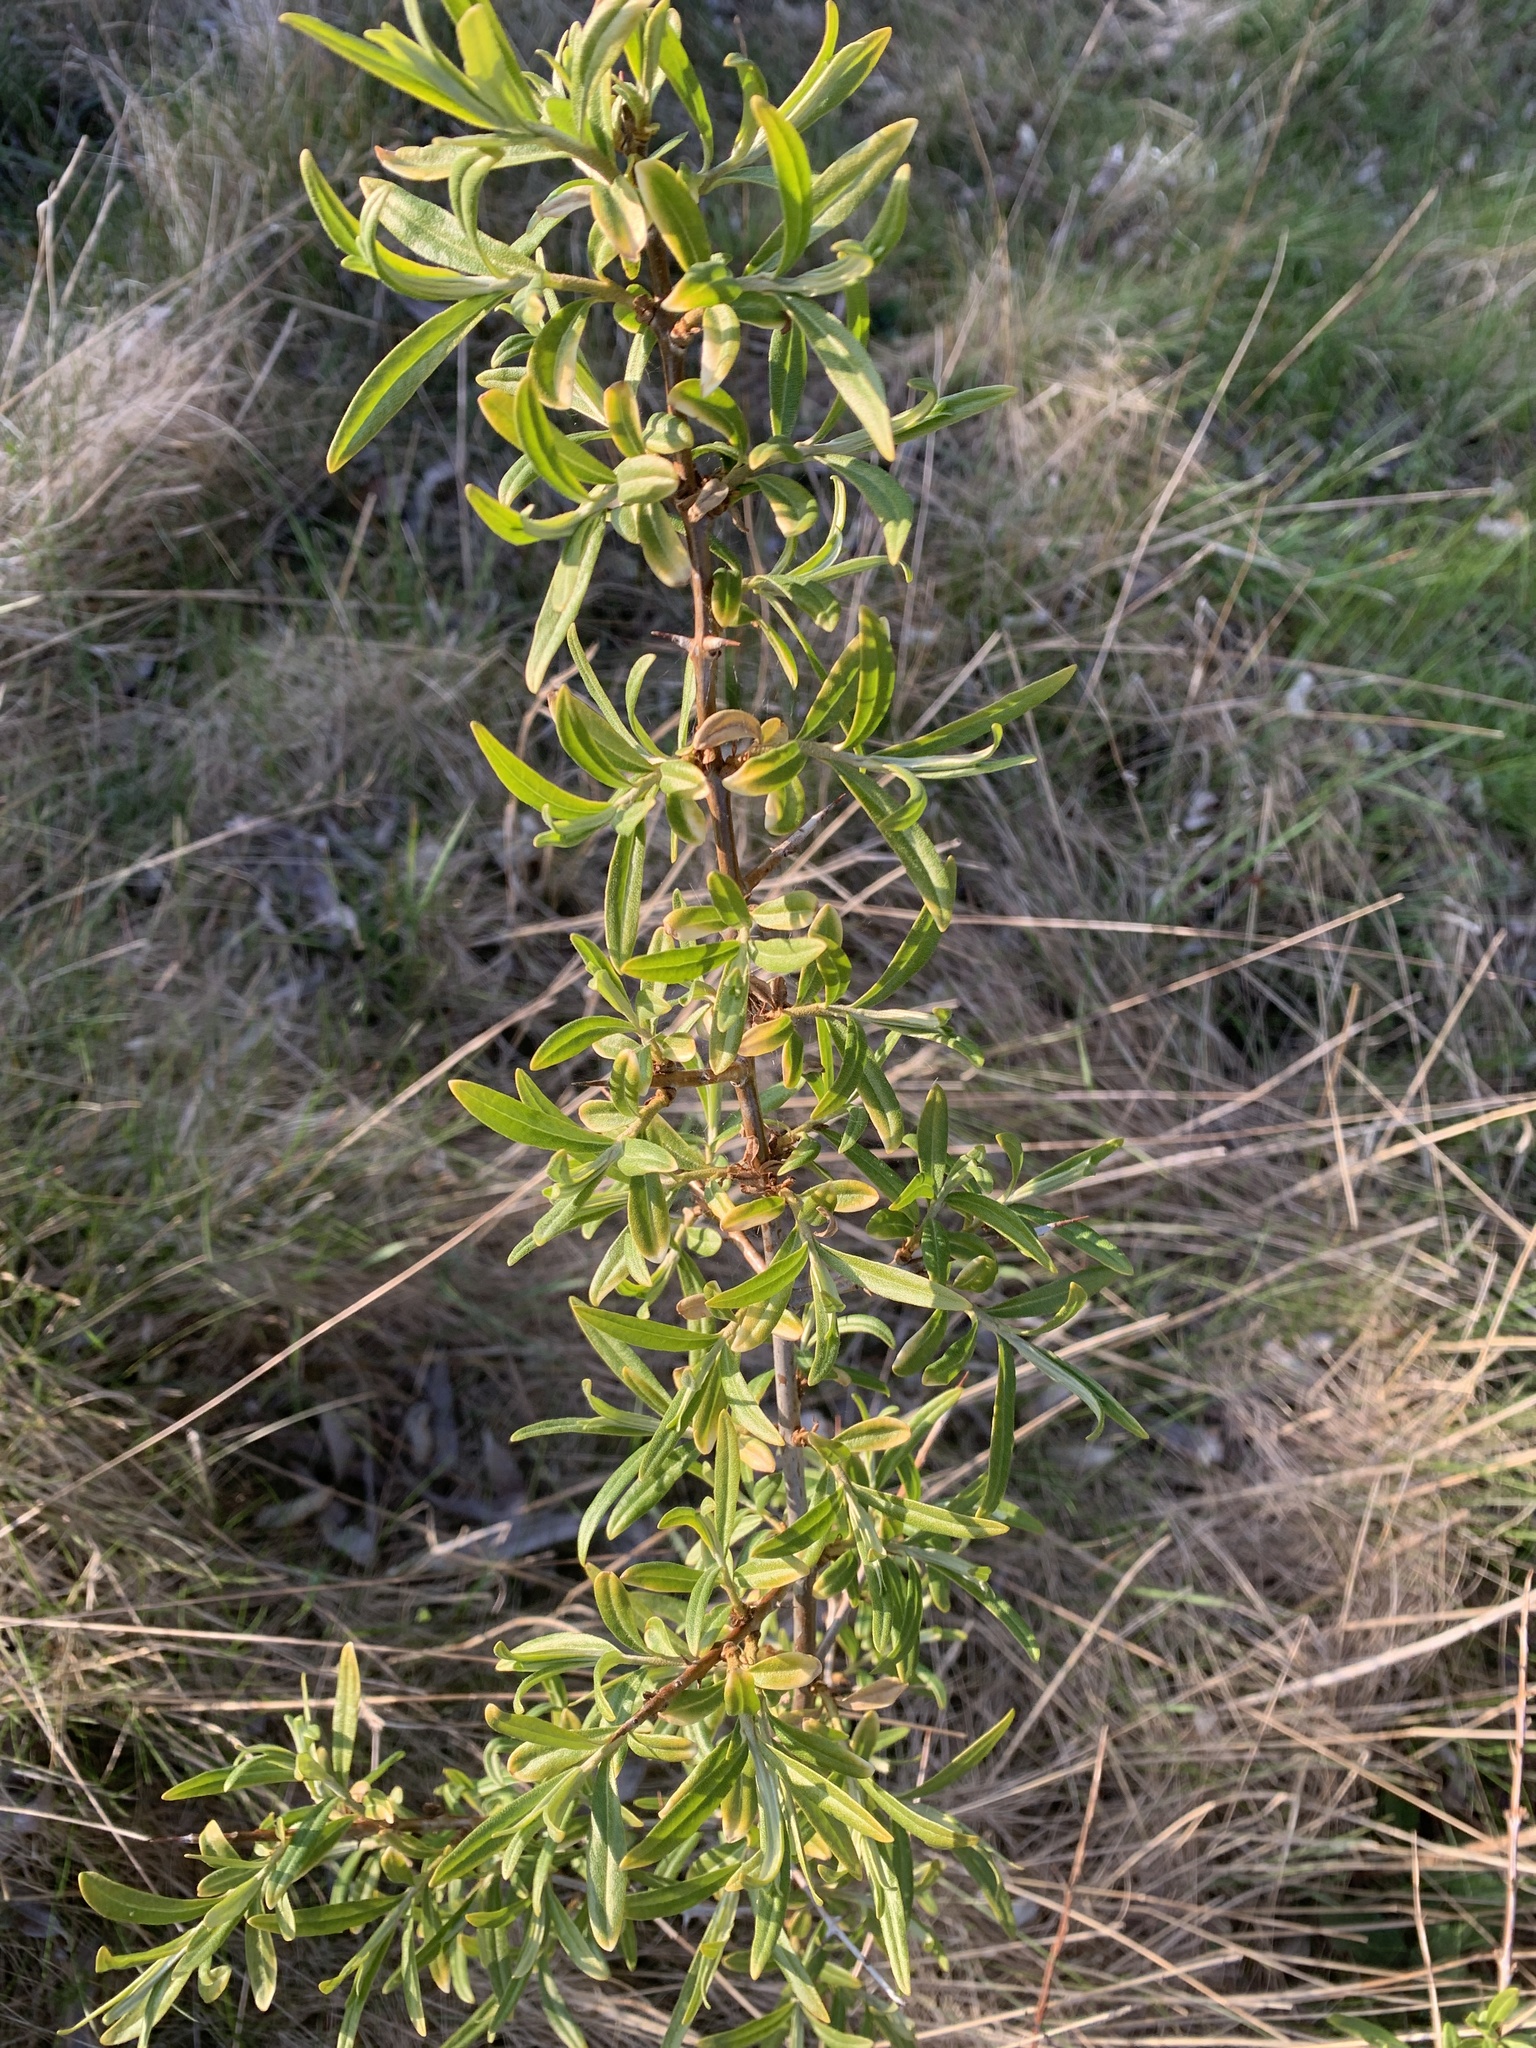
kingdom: Plantae
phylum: Tracheophyta
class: Magnoliopsida
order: Rosales
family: Elaeagnaceae
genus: Hippophae
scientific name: Hippophae rhamnoides
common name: Sea-buckthorn
